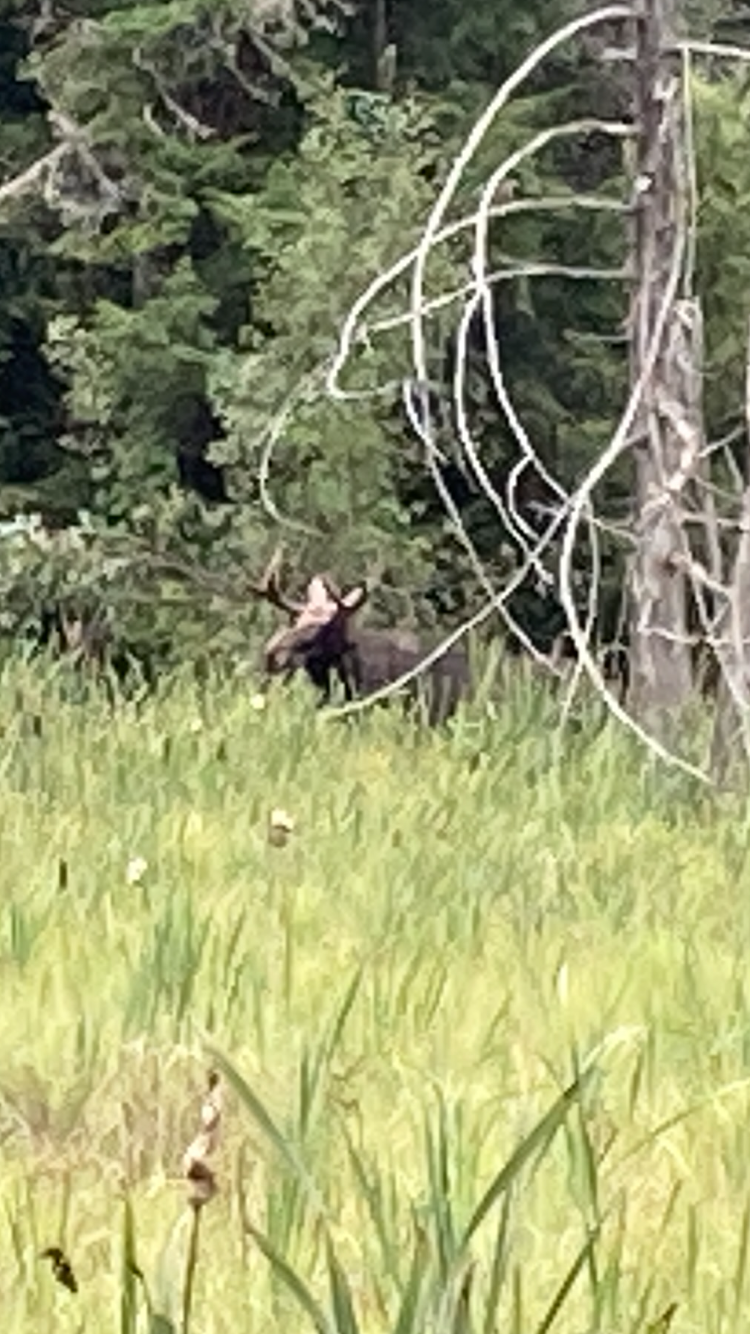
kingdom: Animalia
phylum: Chordata
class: Mammalia
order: Artiodactyla
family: Cervidae
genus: Alces
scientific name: Alces alces
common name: Moose
